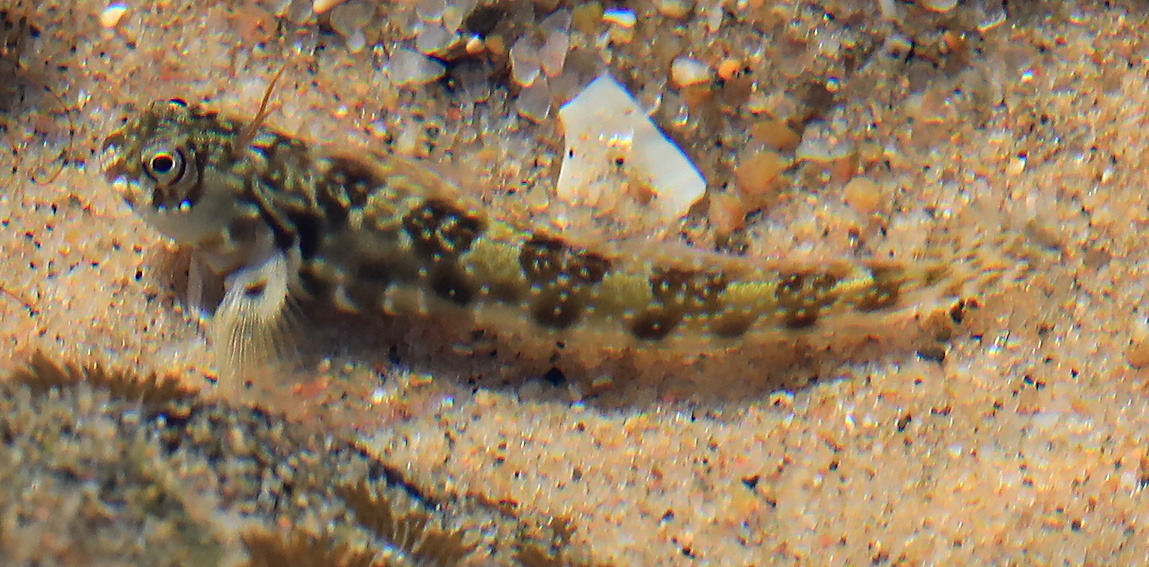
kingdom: Animalia
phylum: Chordata
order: Perciformes
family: Blenniidae
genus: Antennablennius
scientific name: Antennablennius bifilum
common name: Horned rockskipper
